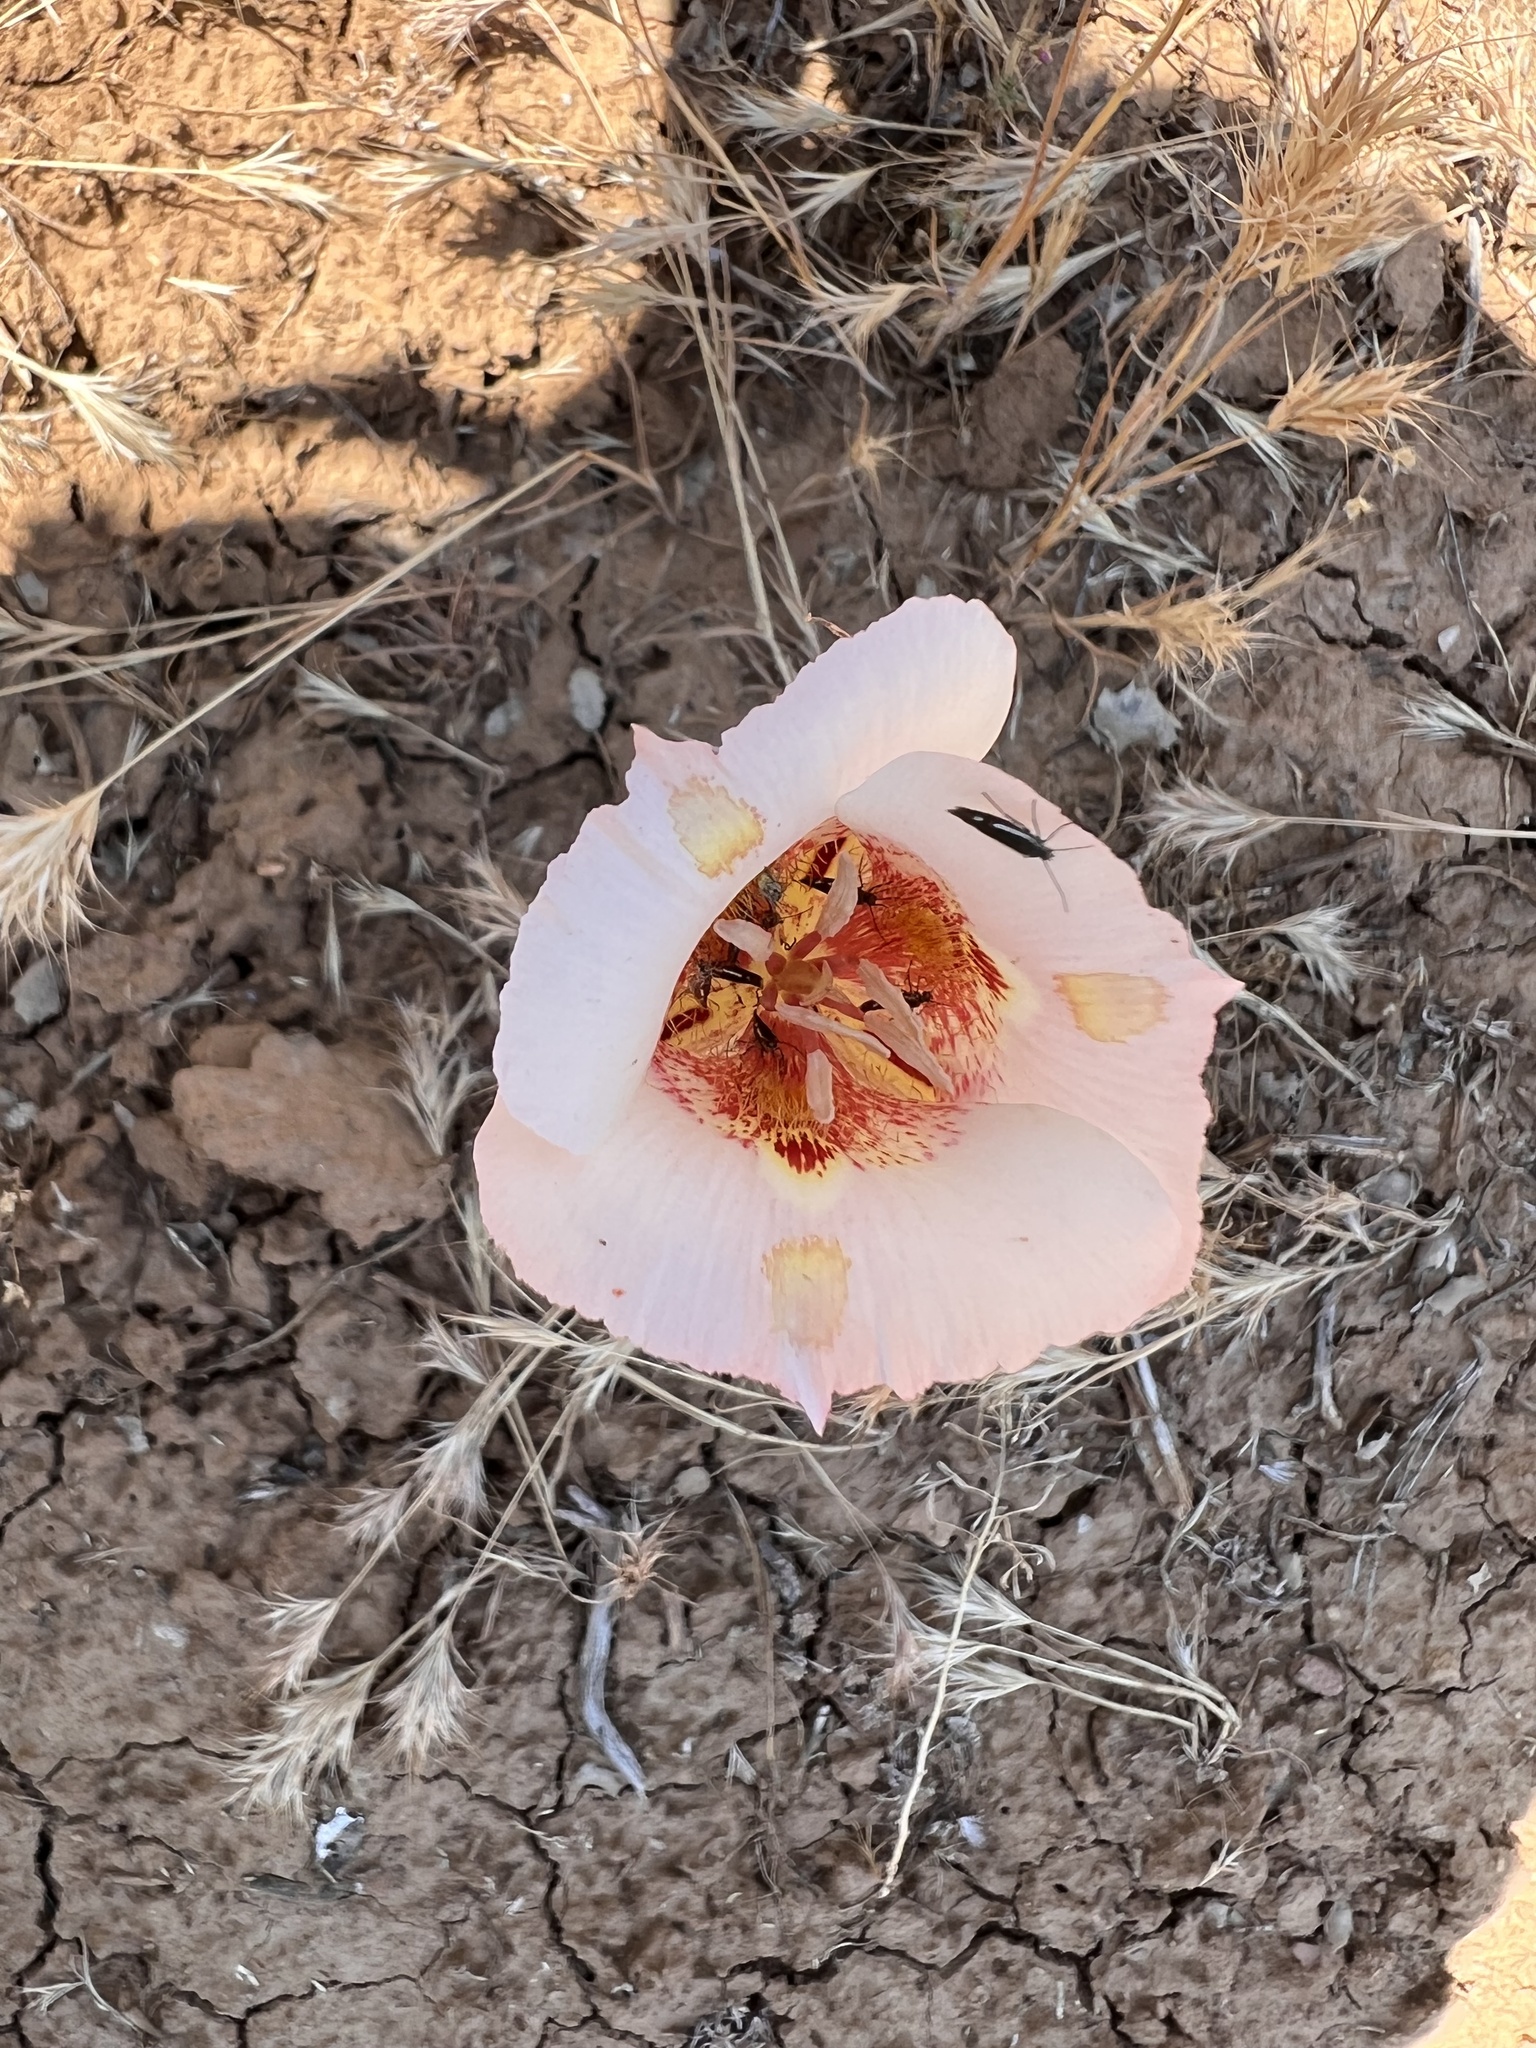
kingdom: Plantae
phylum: Tracheophyta
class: Liliopsida
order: Liliales
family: Liliaceae
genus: Calochortus
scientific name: Calochortus venustus
